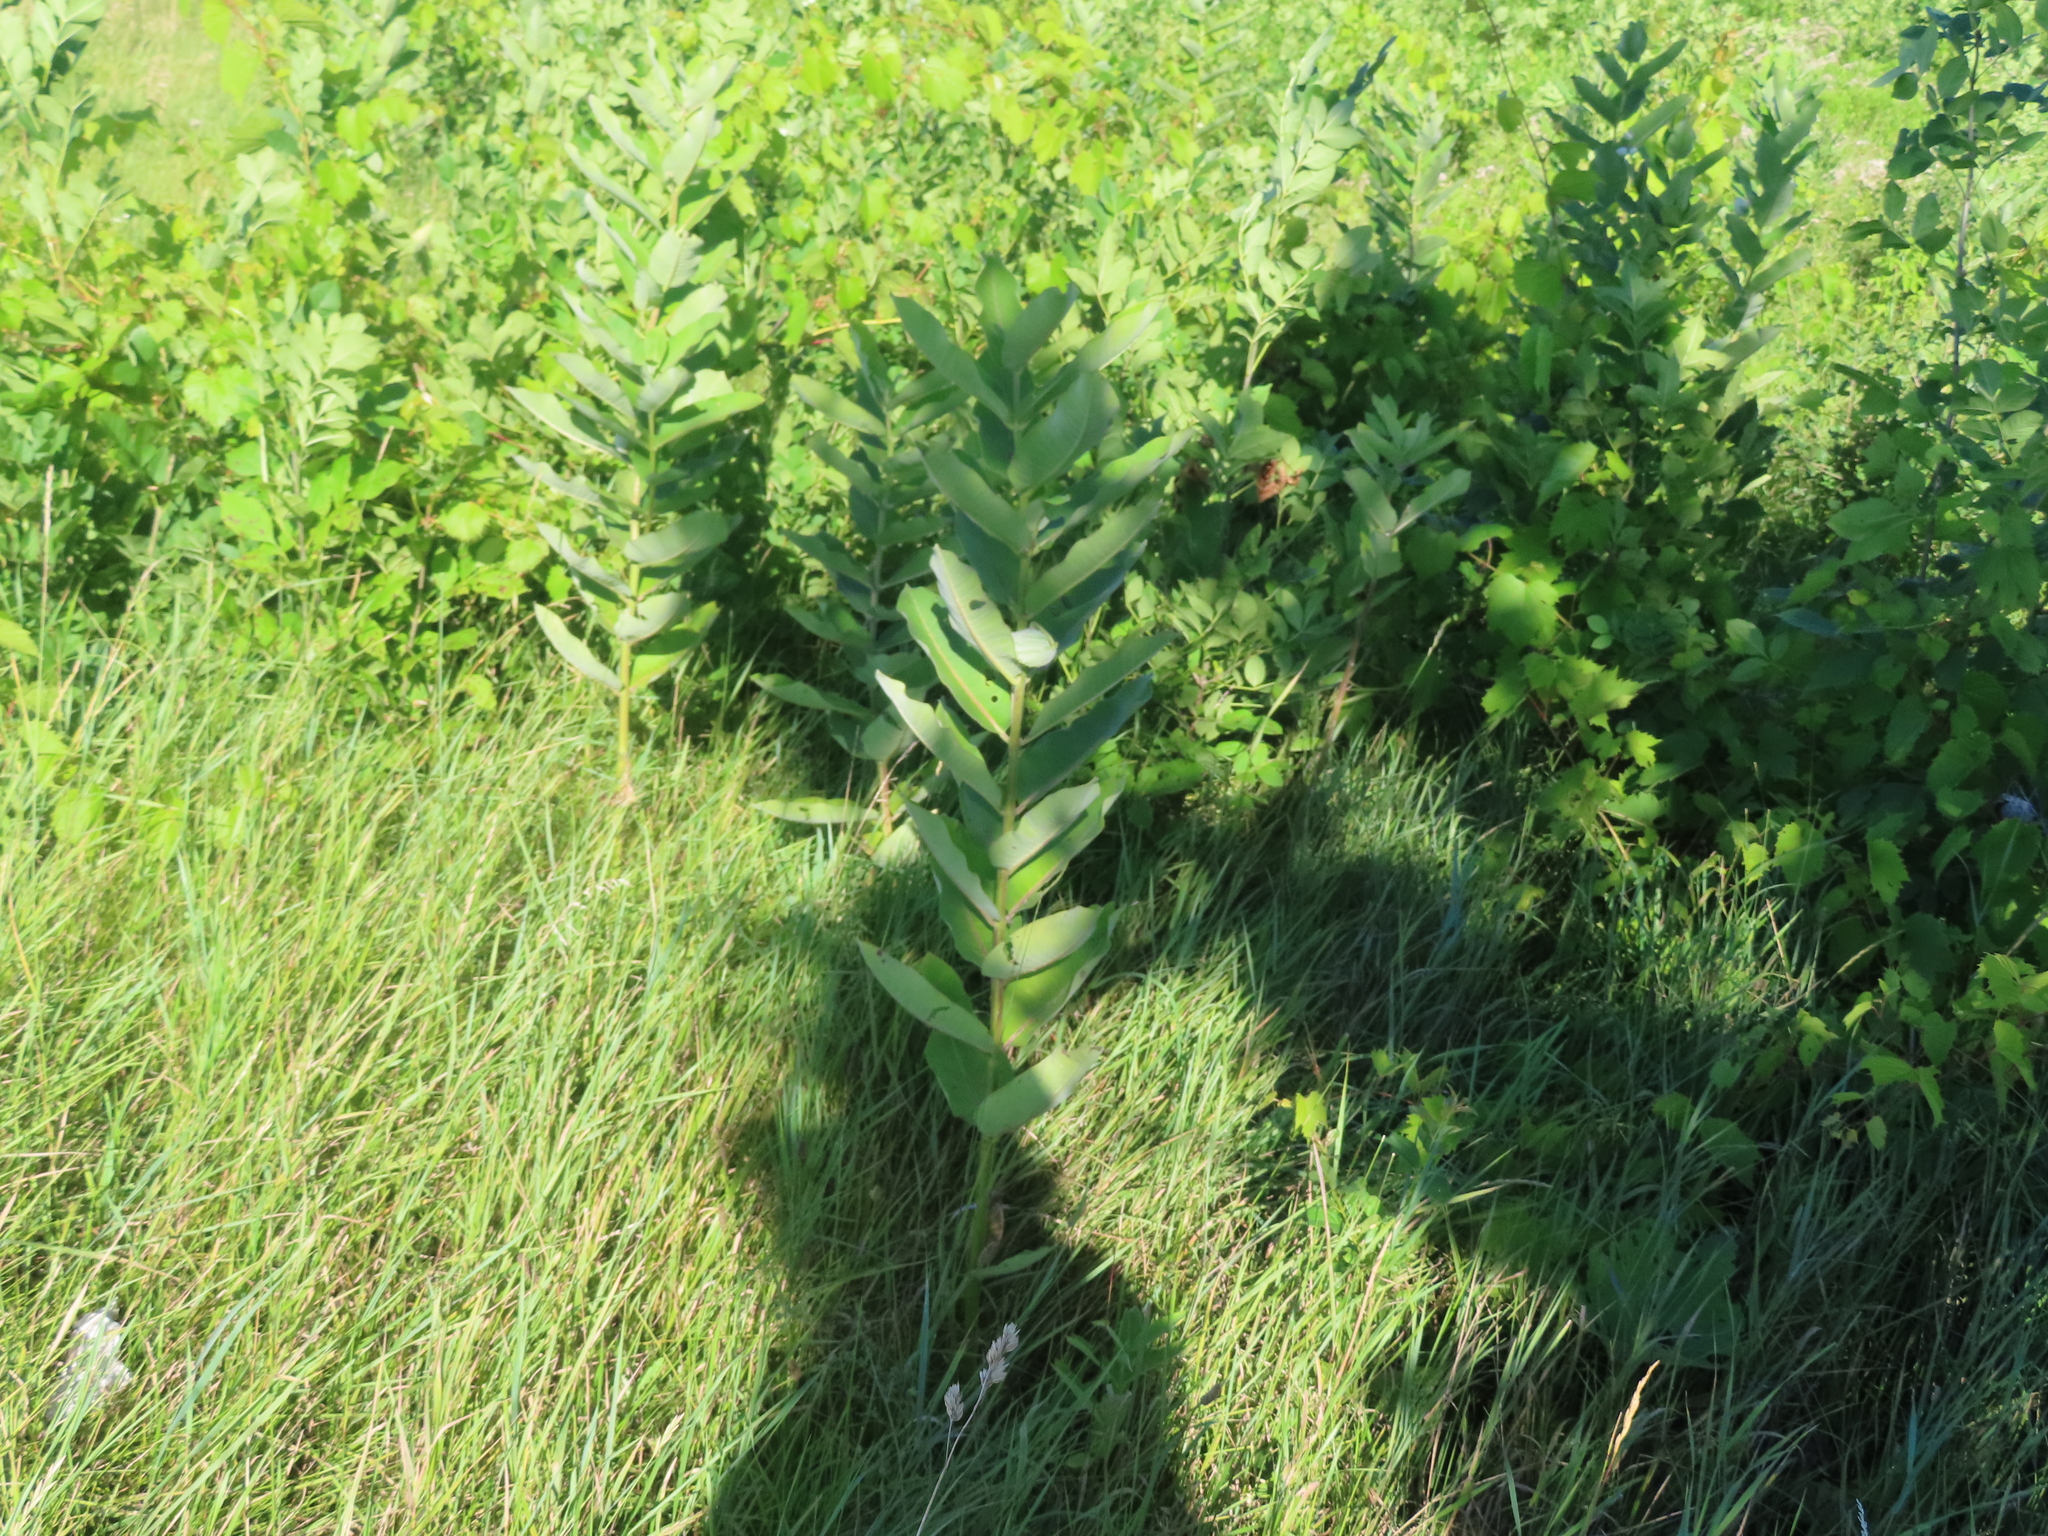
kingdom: Plantae
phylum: Tracheophyta
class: Magnoliopsida
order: Gentianales
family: Apocynaceae
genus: Asclepias
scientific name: Asclepias syriaca
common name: Common milkweed
